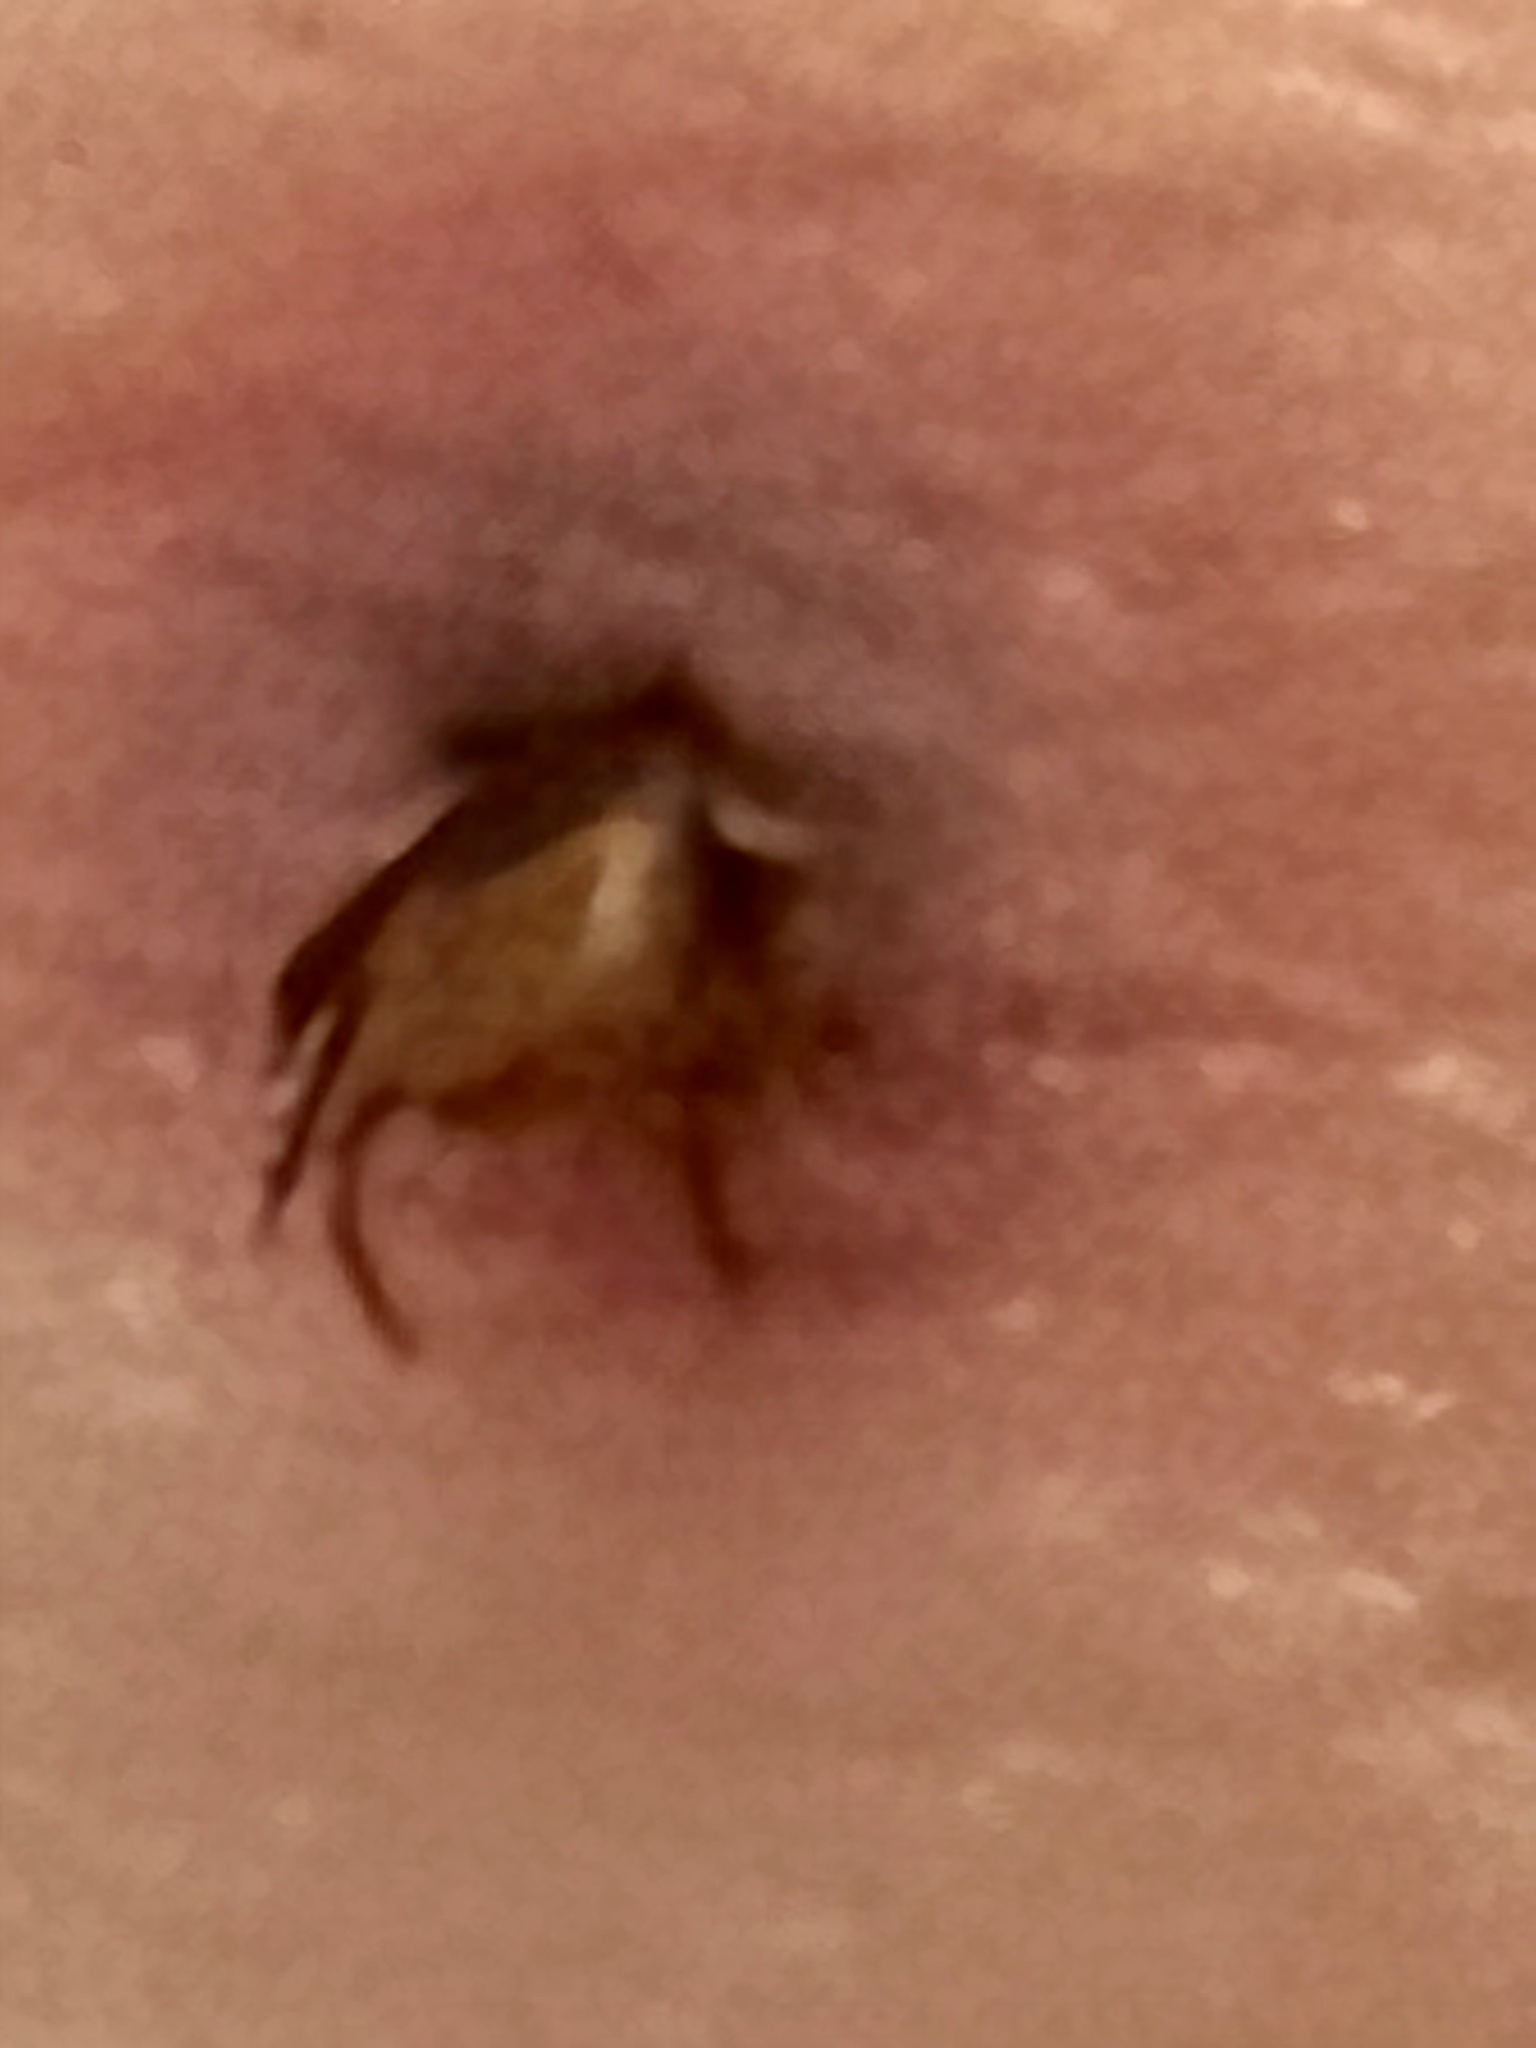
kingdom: Animalia
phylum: Arthropoda
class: Arachnida
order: Ixodida
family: Ixodidae
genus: Ixodes
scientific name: Ixodes scapularis
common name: Black legged tick
